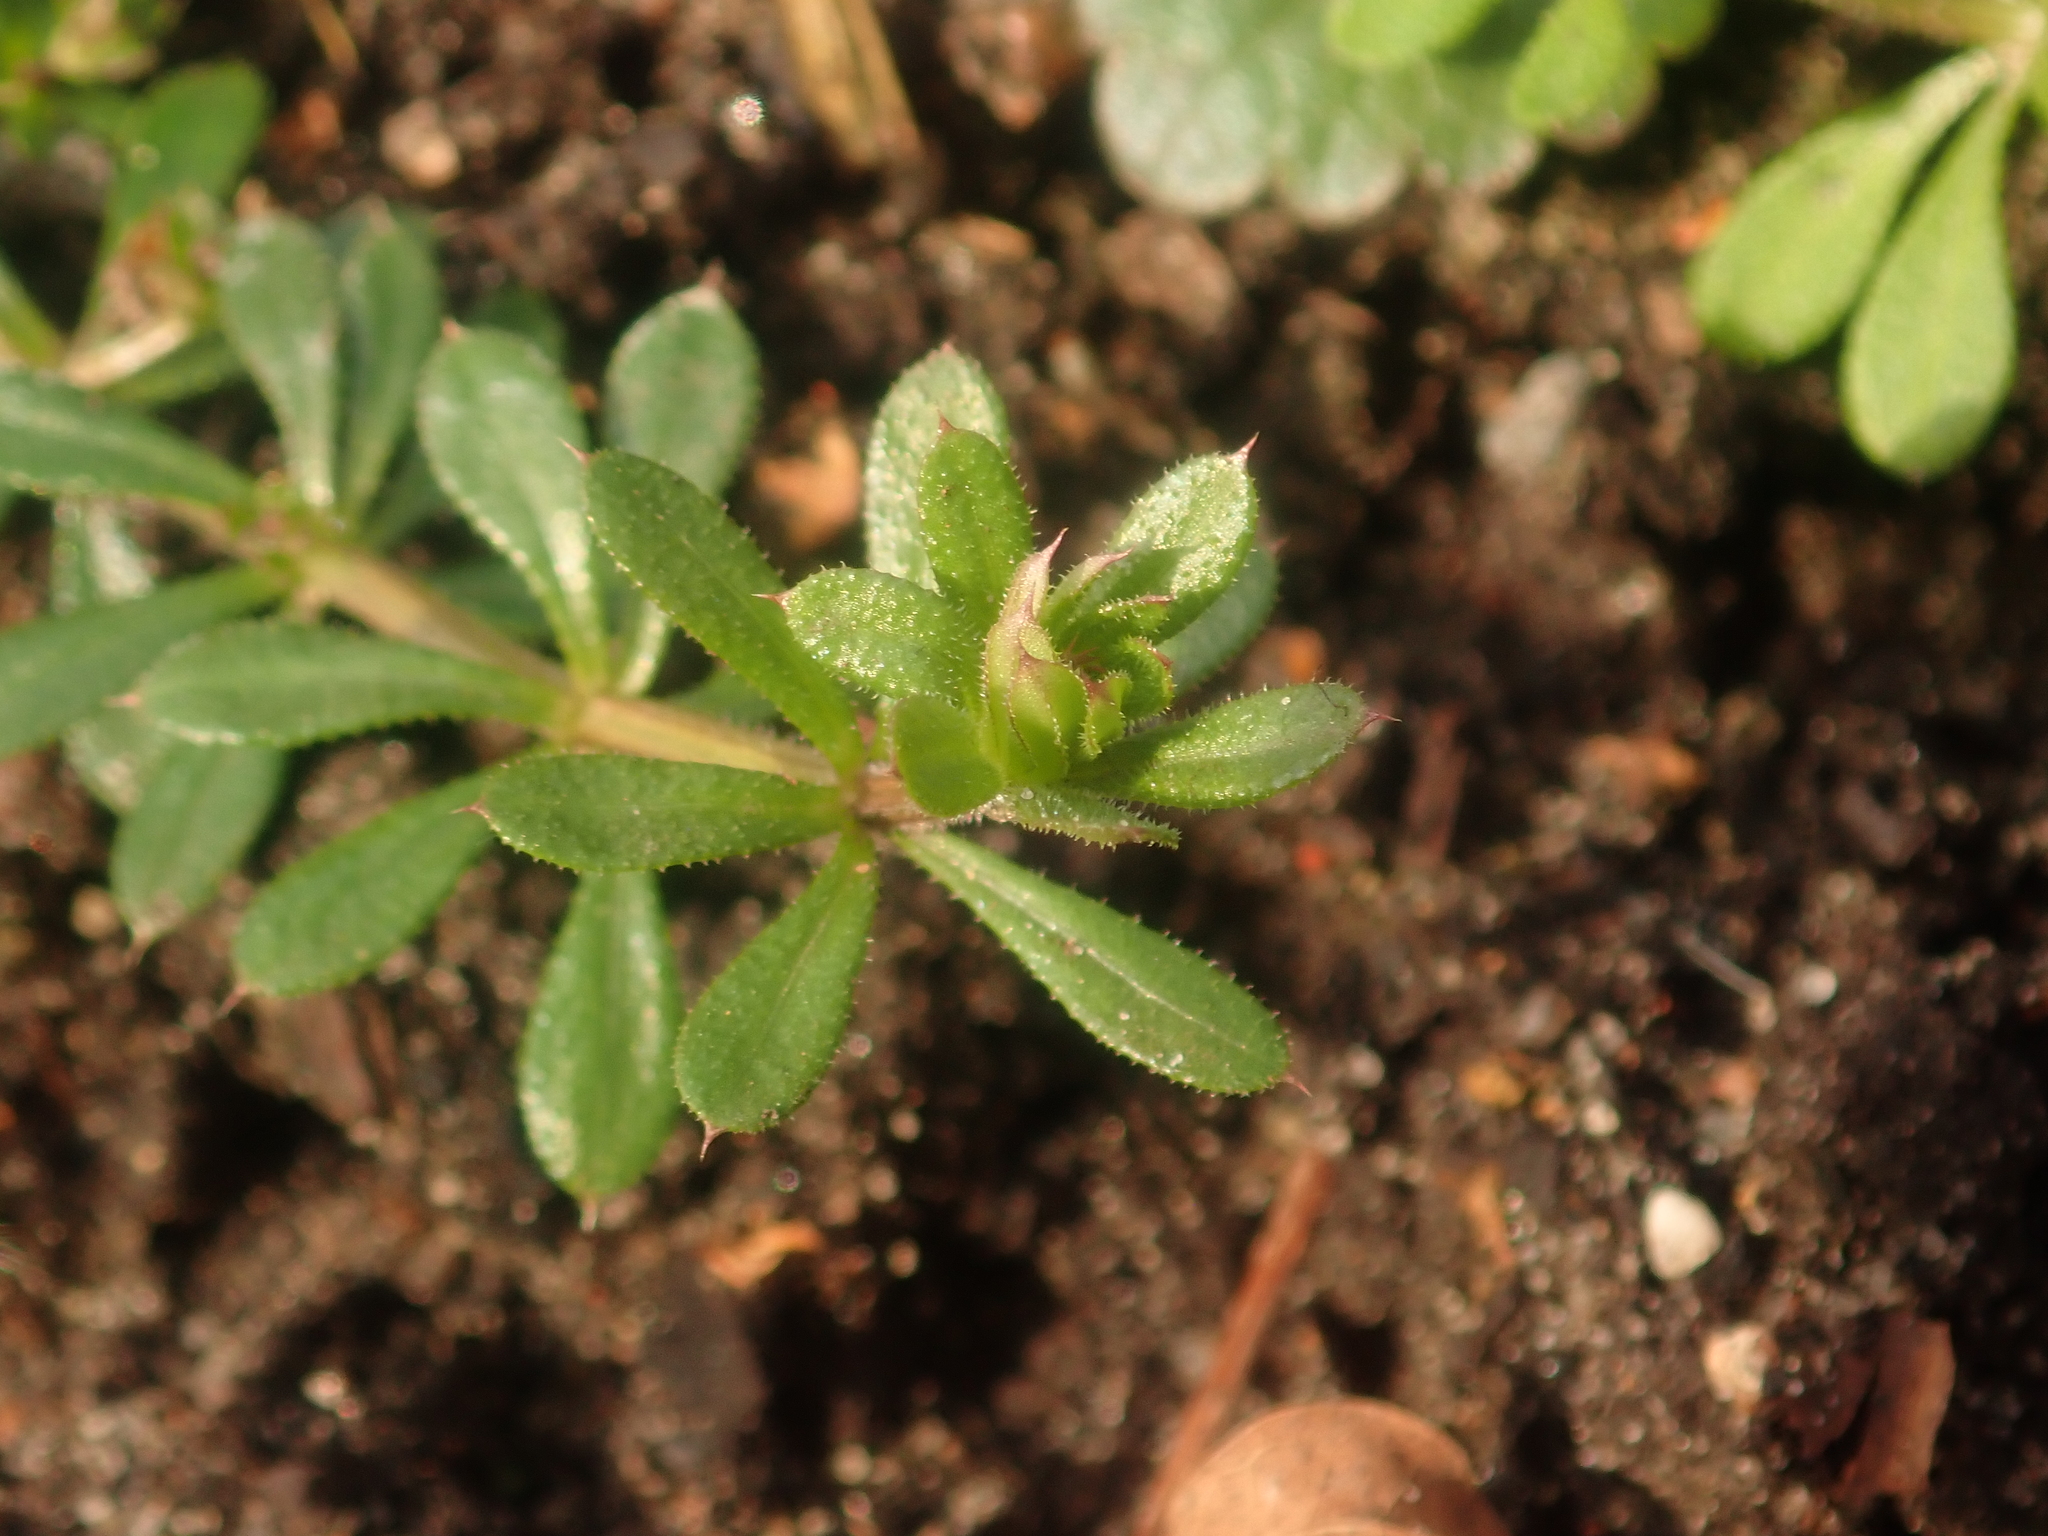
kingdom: Plantae
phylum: Tracheophyta
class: Magnoliopsida
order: Gentianales
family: Rubiaceae
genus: Galium
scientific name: Galium aparine
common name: Cleavers
